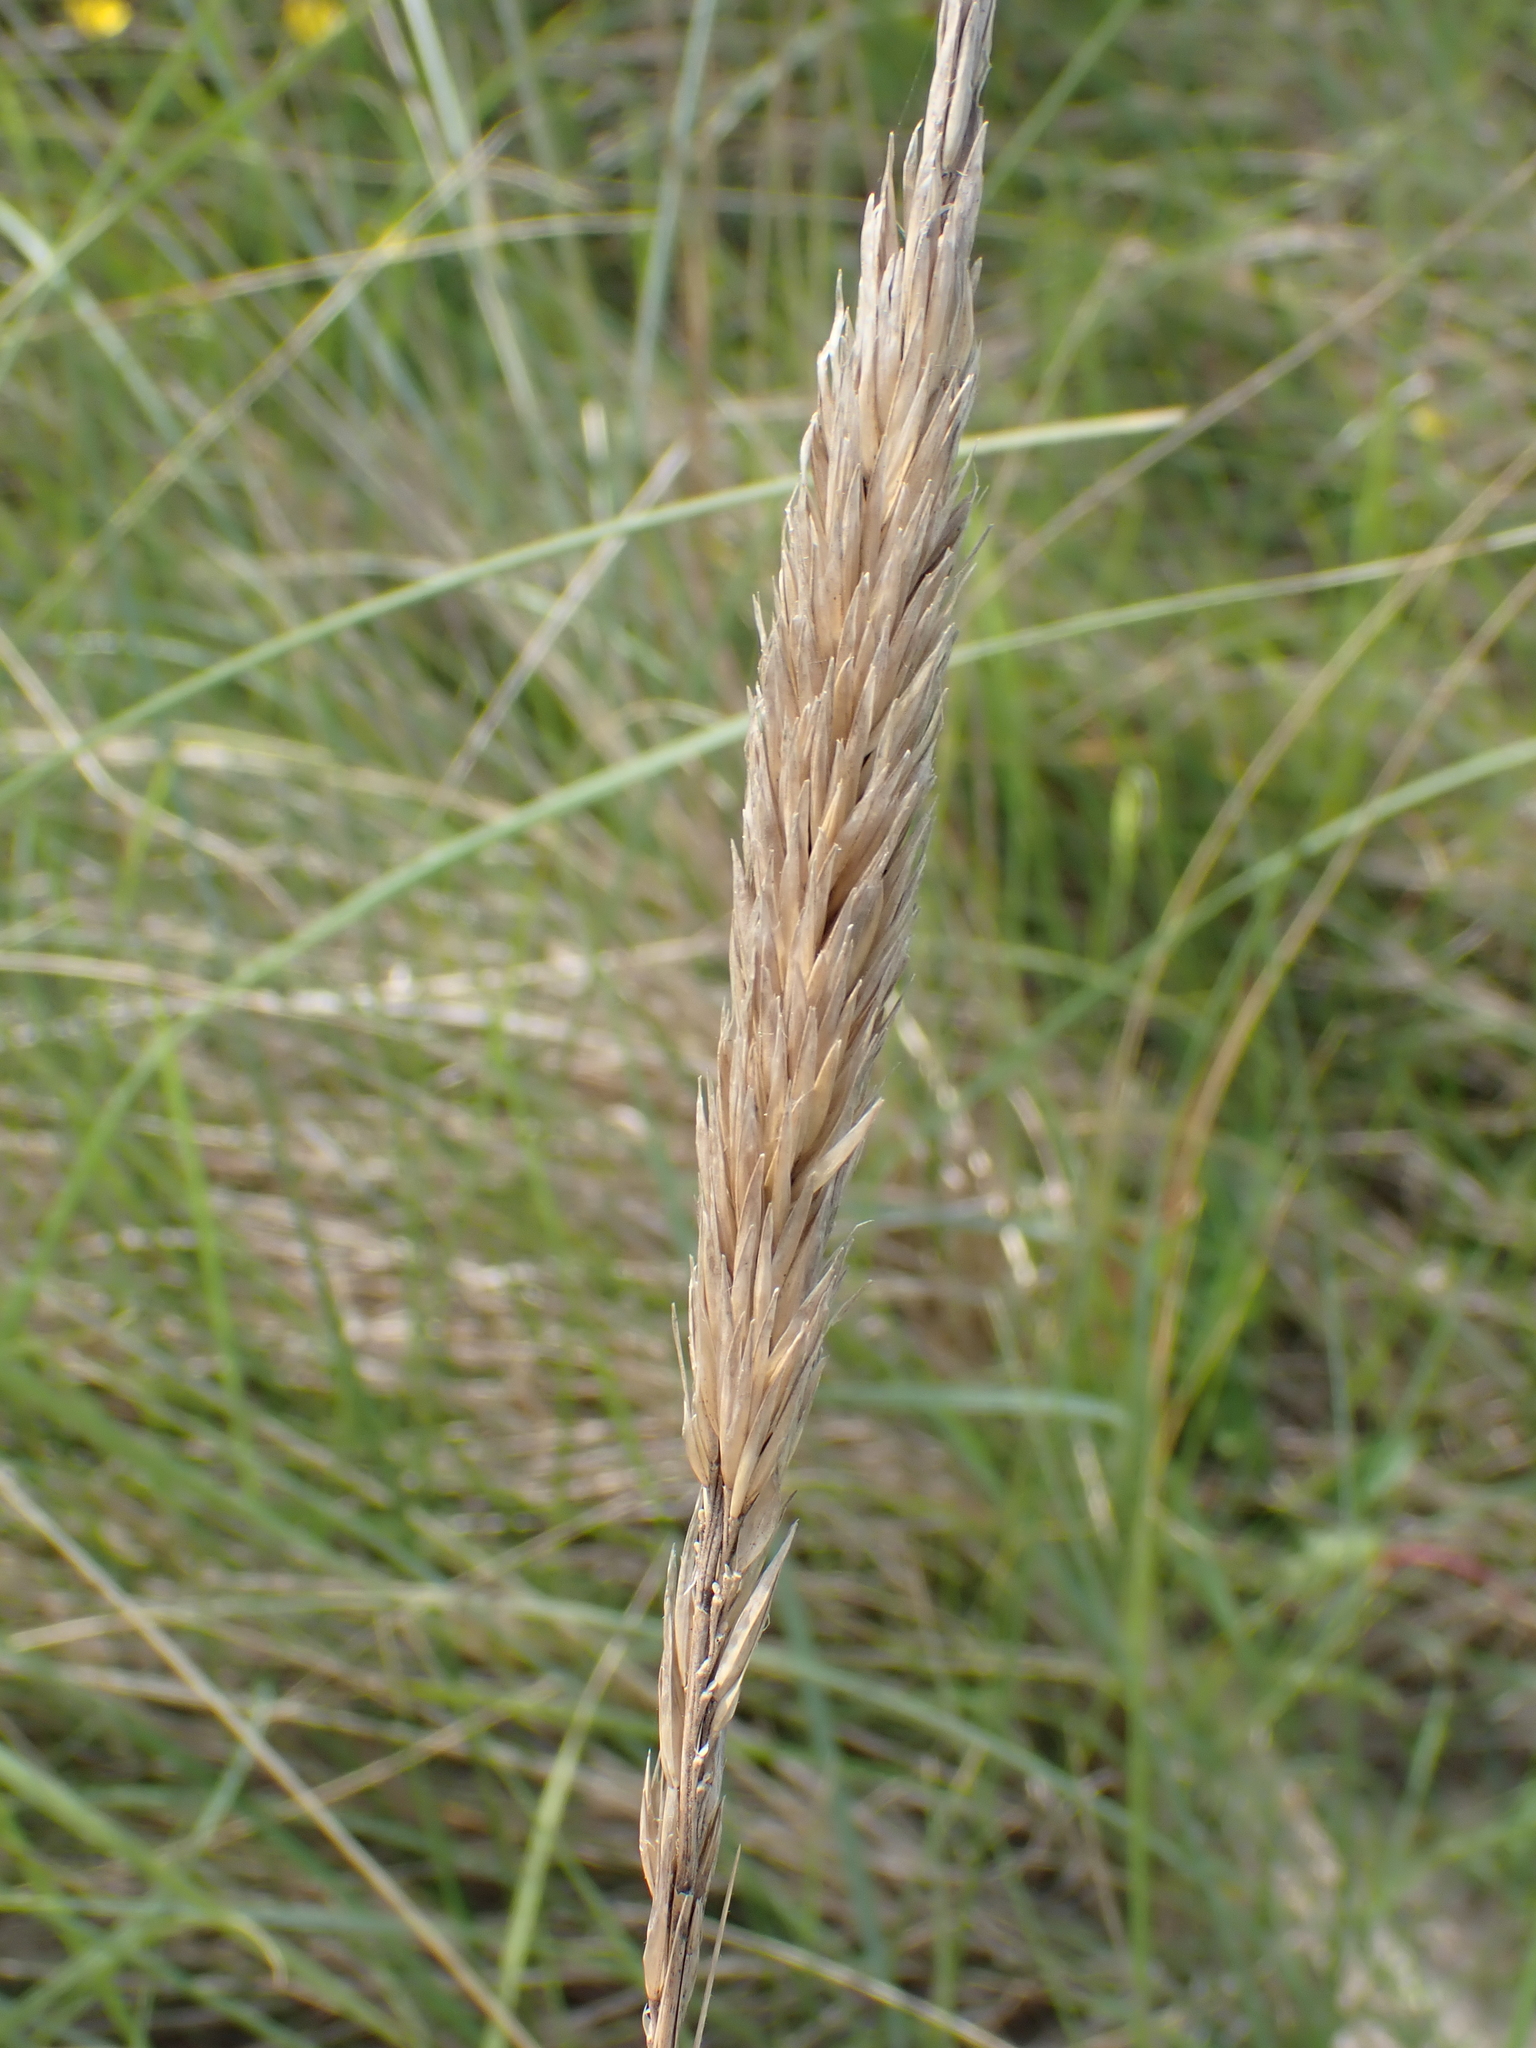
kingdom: Plantae
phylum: Tracheophyta
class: Liliopsida
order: Poales
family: Poaceae
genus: Calamagrostis
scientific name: Calamagrostis arenaria
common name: European beachgrass
